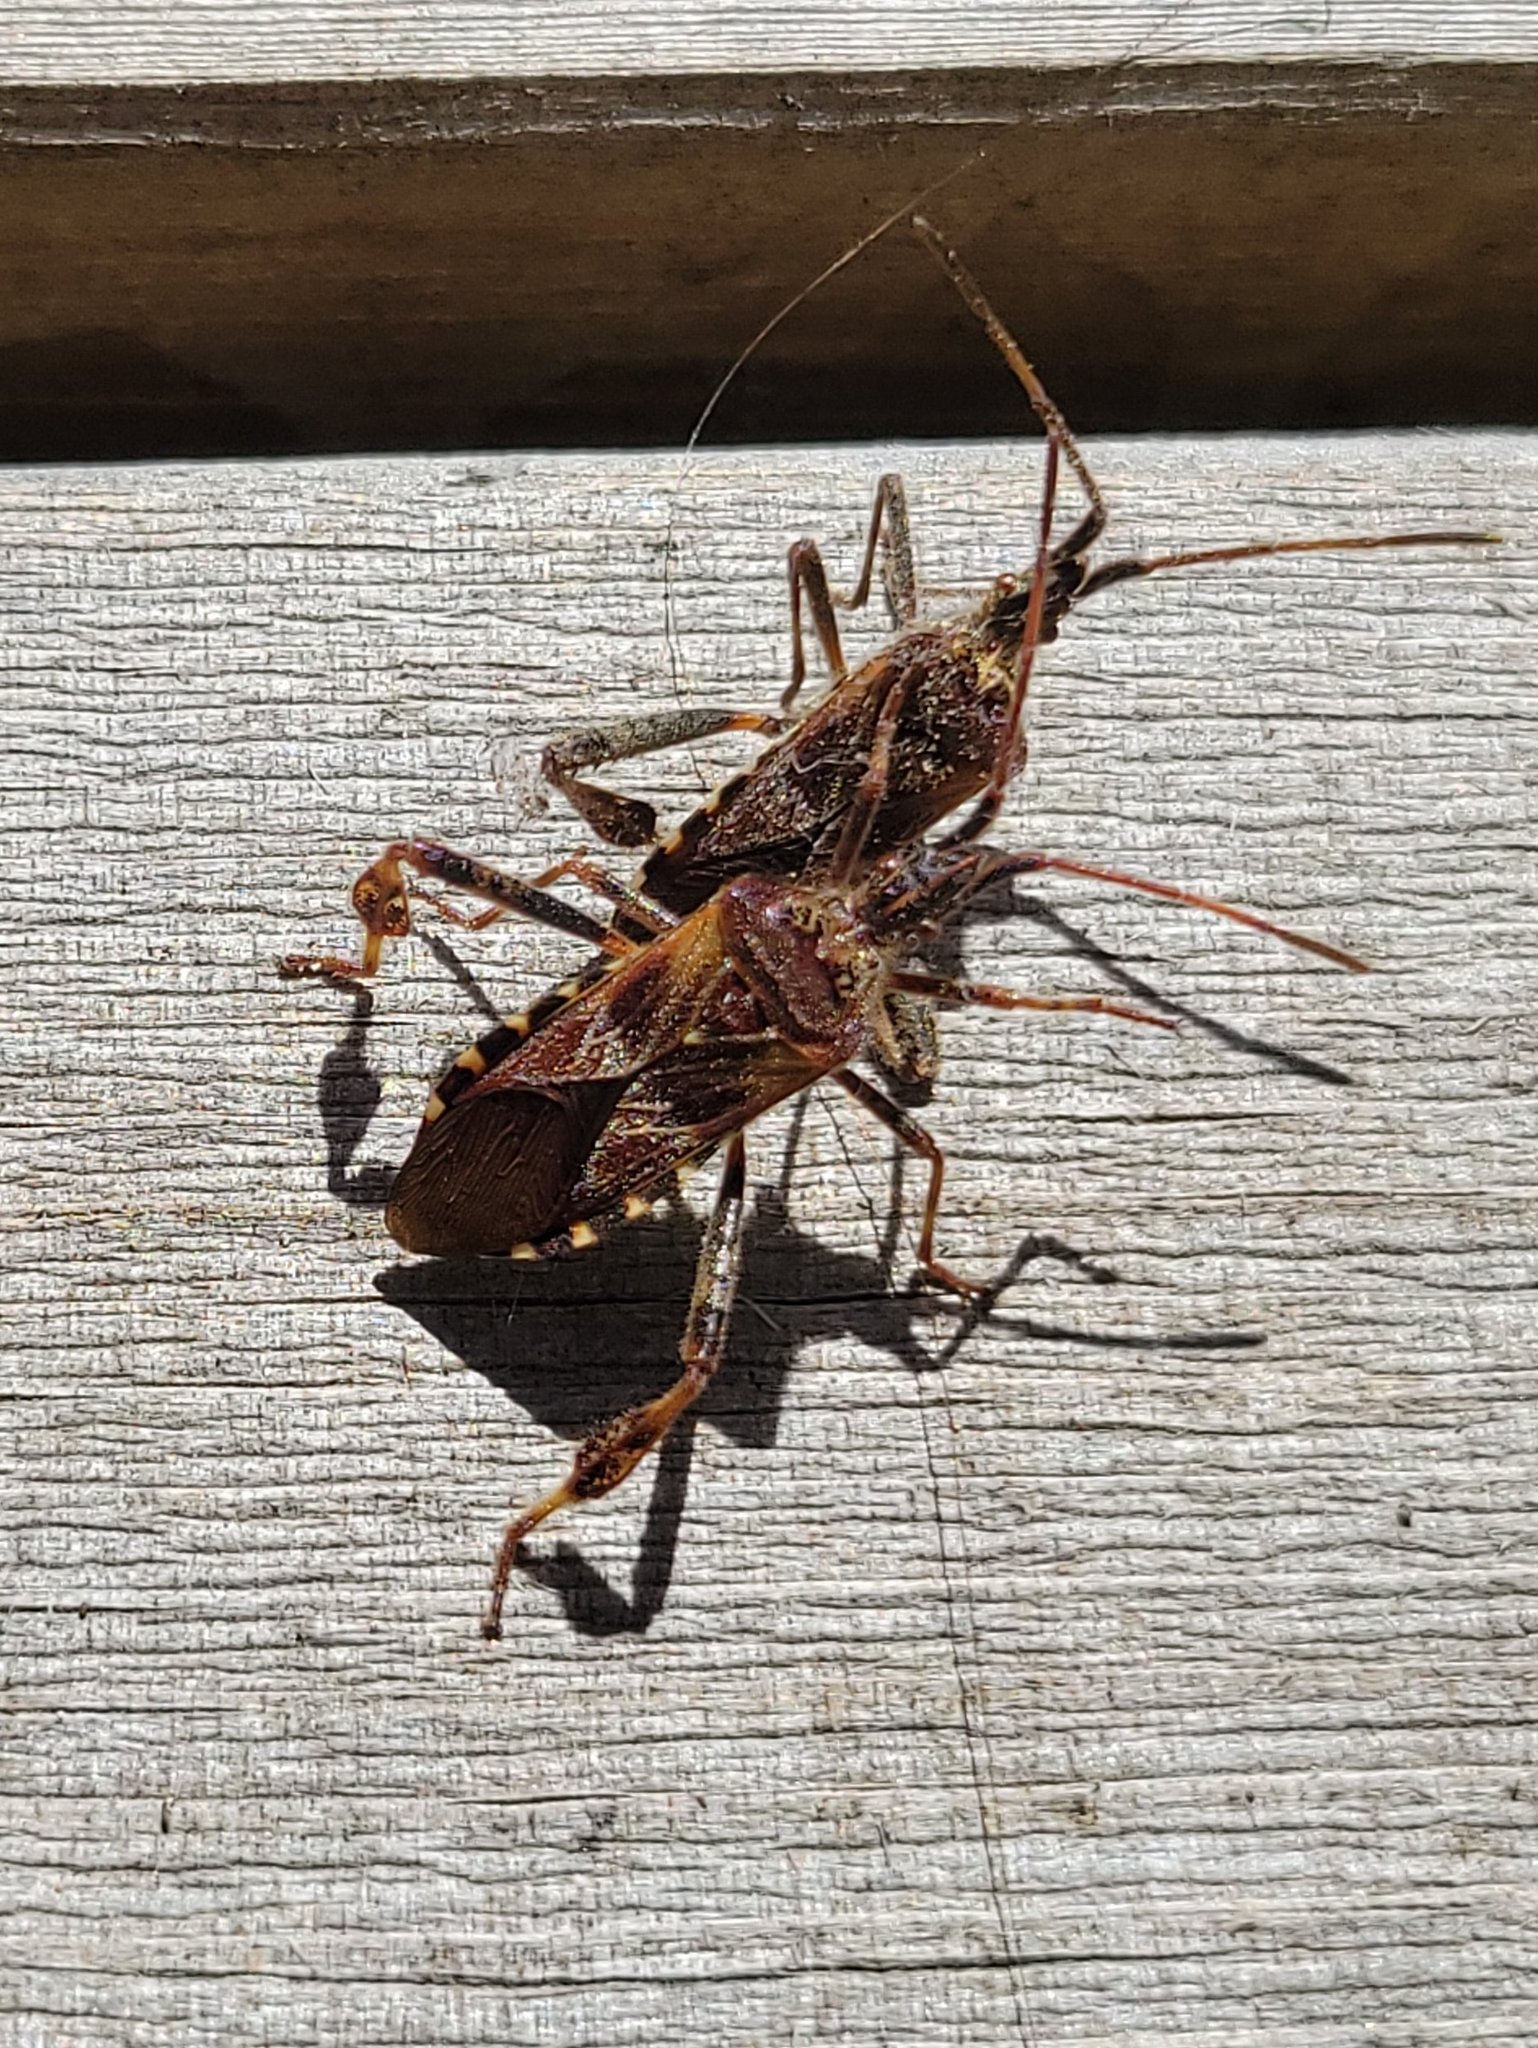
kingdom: Animalia
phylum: Arthropoda
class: Insecta
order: Hemiptera
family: Coreidae
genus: Leptoglossus
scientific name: Leptoglossus occidentalis
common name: Western conifer-seed bug
